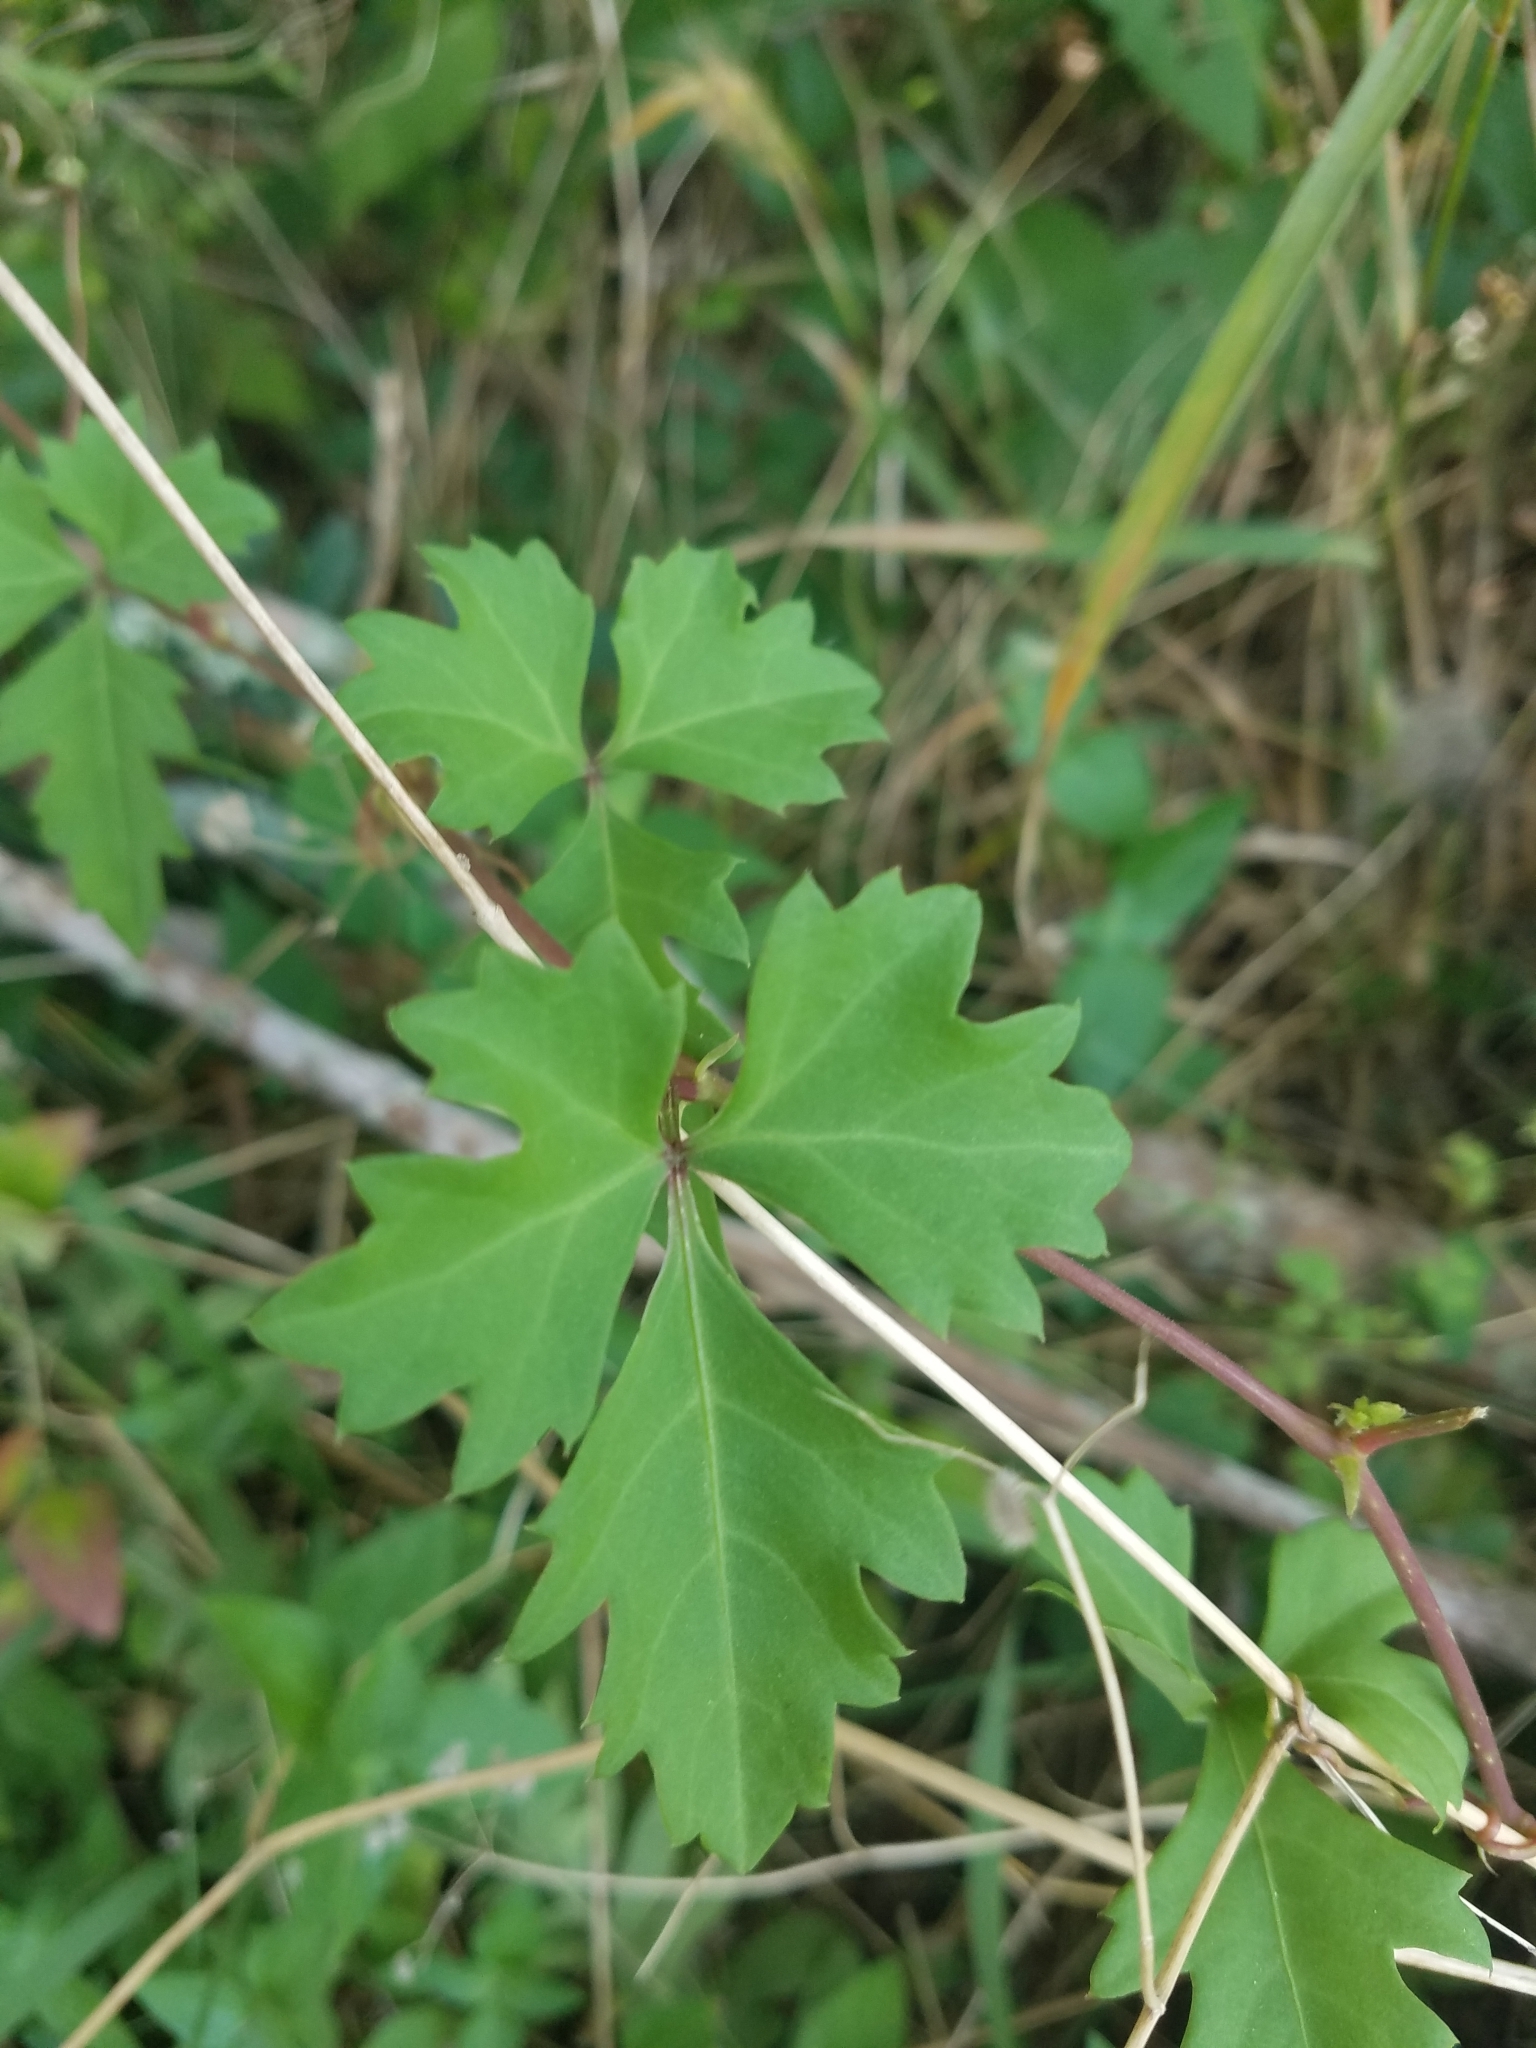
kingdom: Plantae
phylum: Tracheophyta
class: Magnoliopsida
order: Vitales
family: Vitaceae
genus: Cissus
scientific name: Cissus trifoliata
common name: Vine-sorrel
